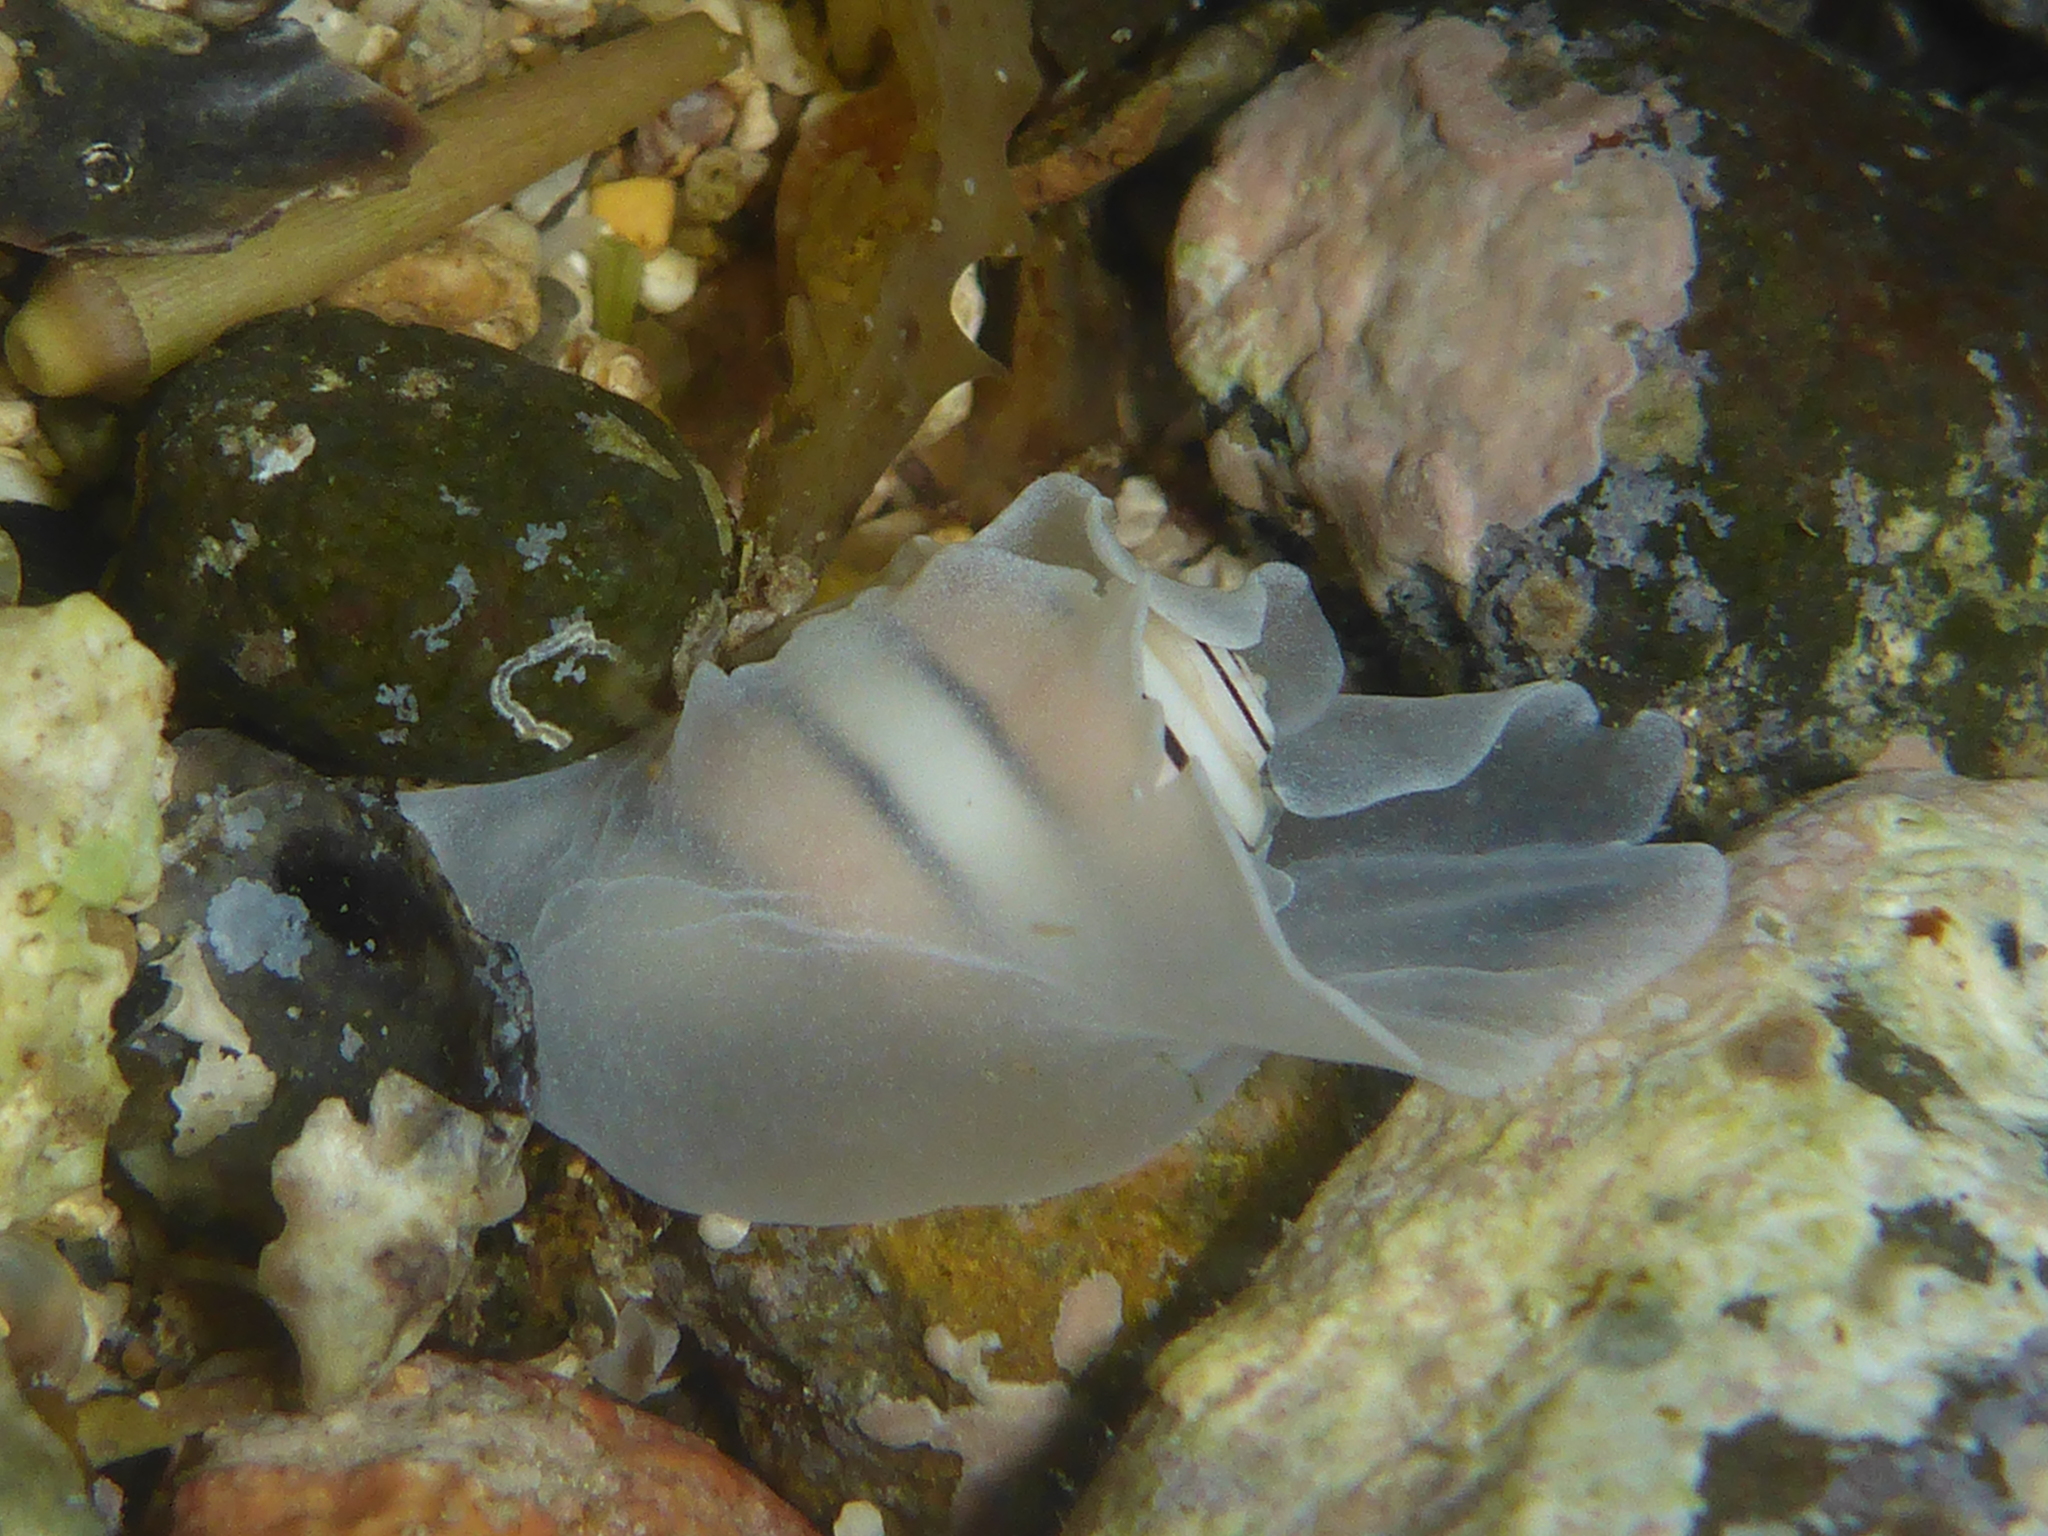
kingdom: Animalia
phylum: Mollusca
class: Gastropoda
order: Cephalaspidea
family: Aplustridae
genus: Aplustrum
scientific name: Aplustrum amplustre
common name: Royal paperbubble
